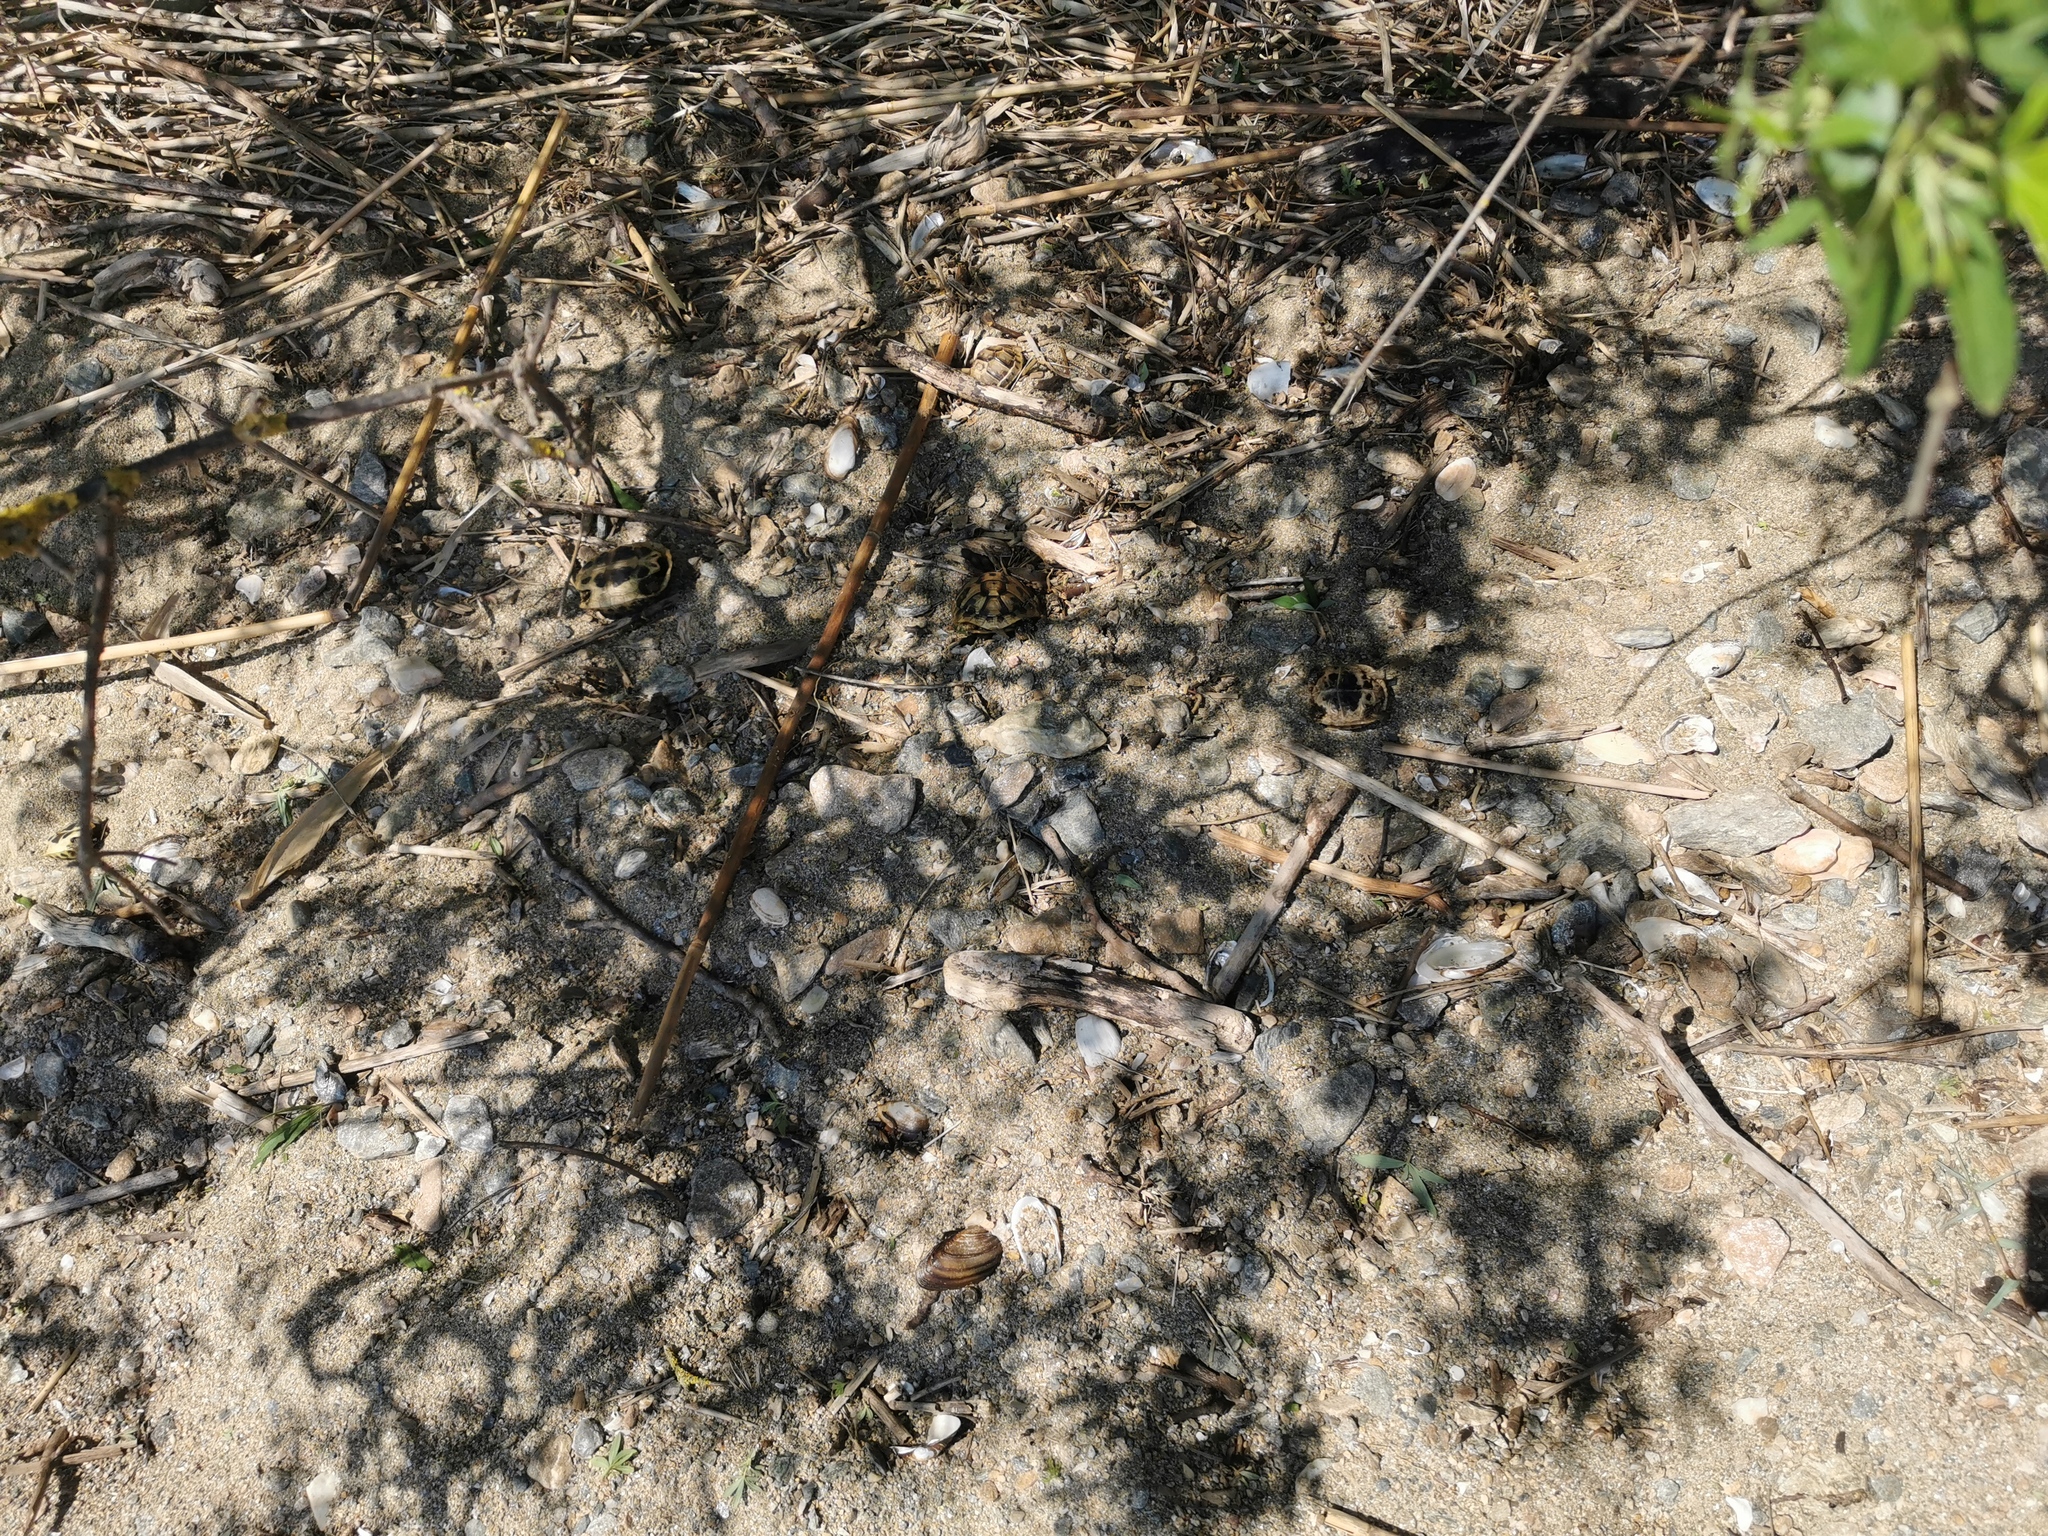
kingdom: Animalia
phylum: Chordata
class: Testudines
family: Testudinidae
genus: Testudo
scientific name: Testudo hermanni
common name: Hermann's tortoise
